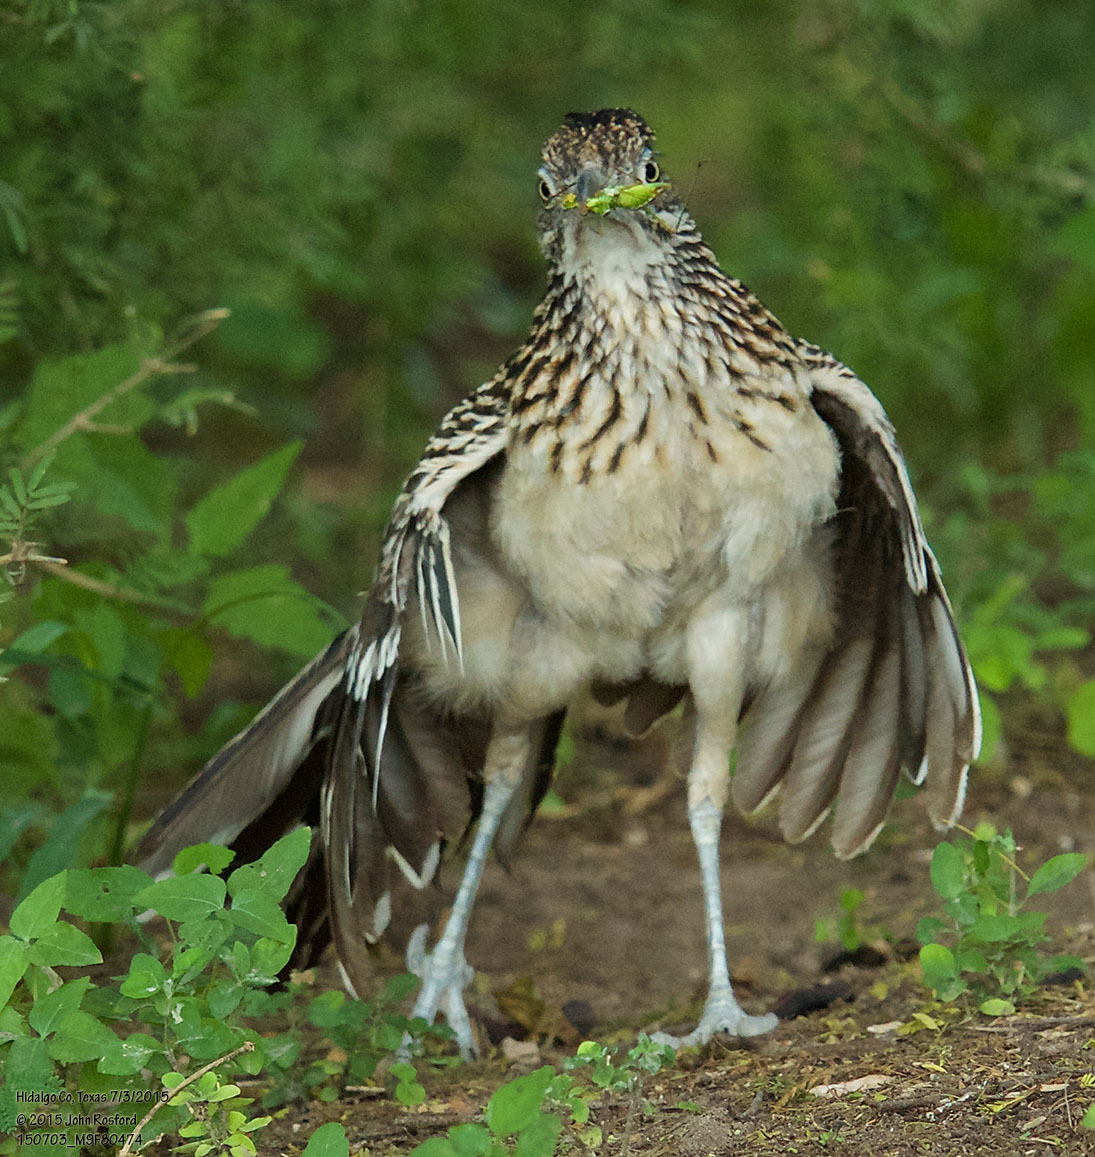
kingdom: Animalia
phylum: Chordata
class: Aves
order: Cuculiformes
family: Cuculidae
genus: Geococcyx
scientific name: Geococcyx californianus
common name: Greater roadrunner
